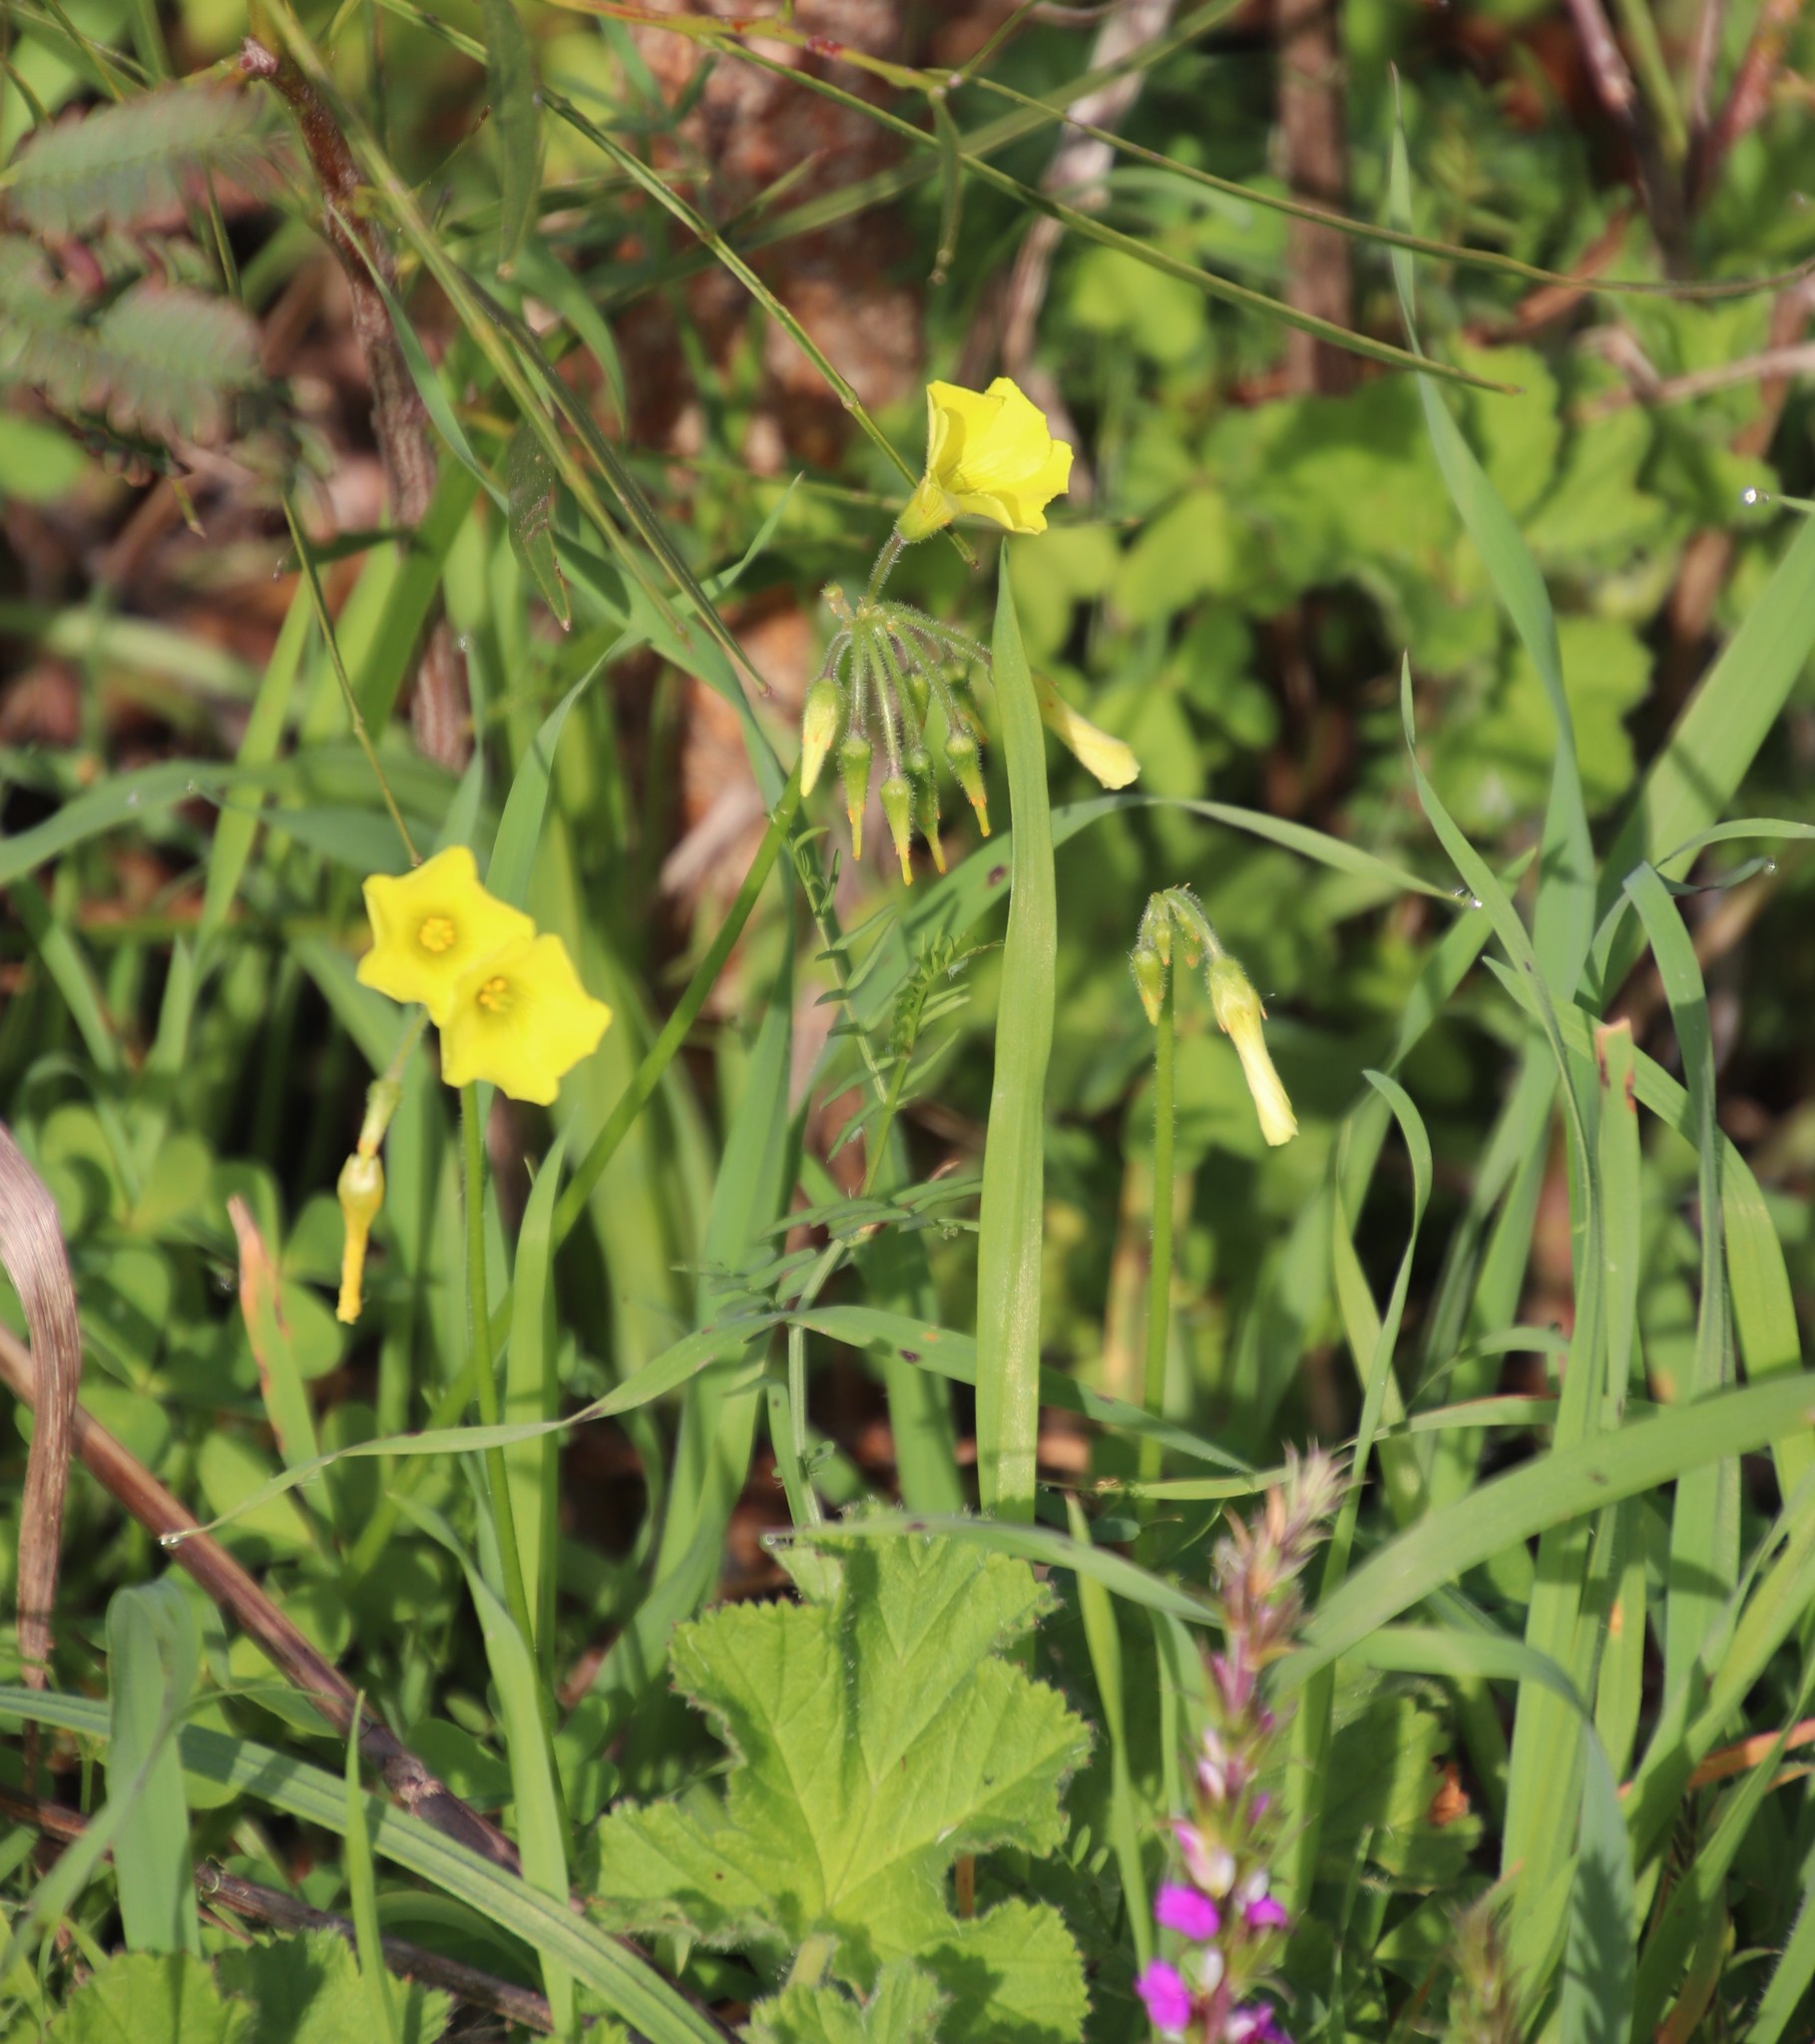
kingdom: Plantae
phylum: Tracheophyta
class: Magnoliopsida
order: Oxalidales
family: Oxalidaceae
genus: Oxalis
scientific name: Oxalis pes-caprae
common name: Bermuda-buttercup
